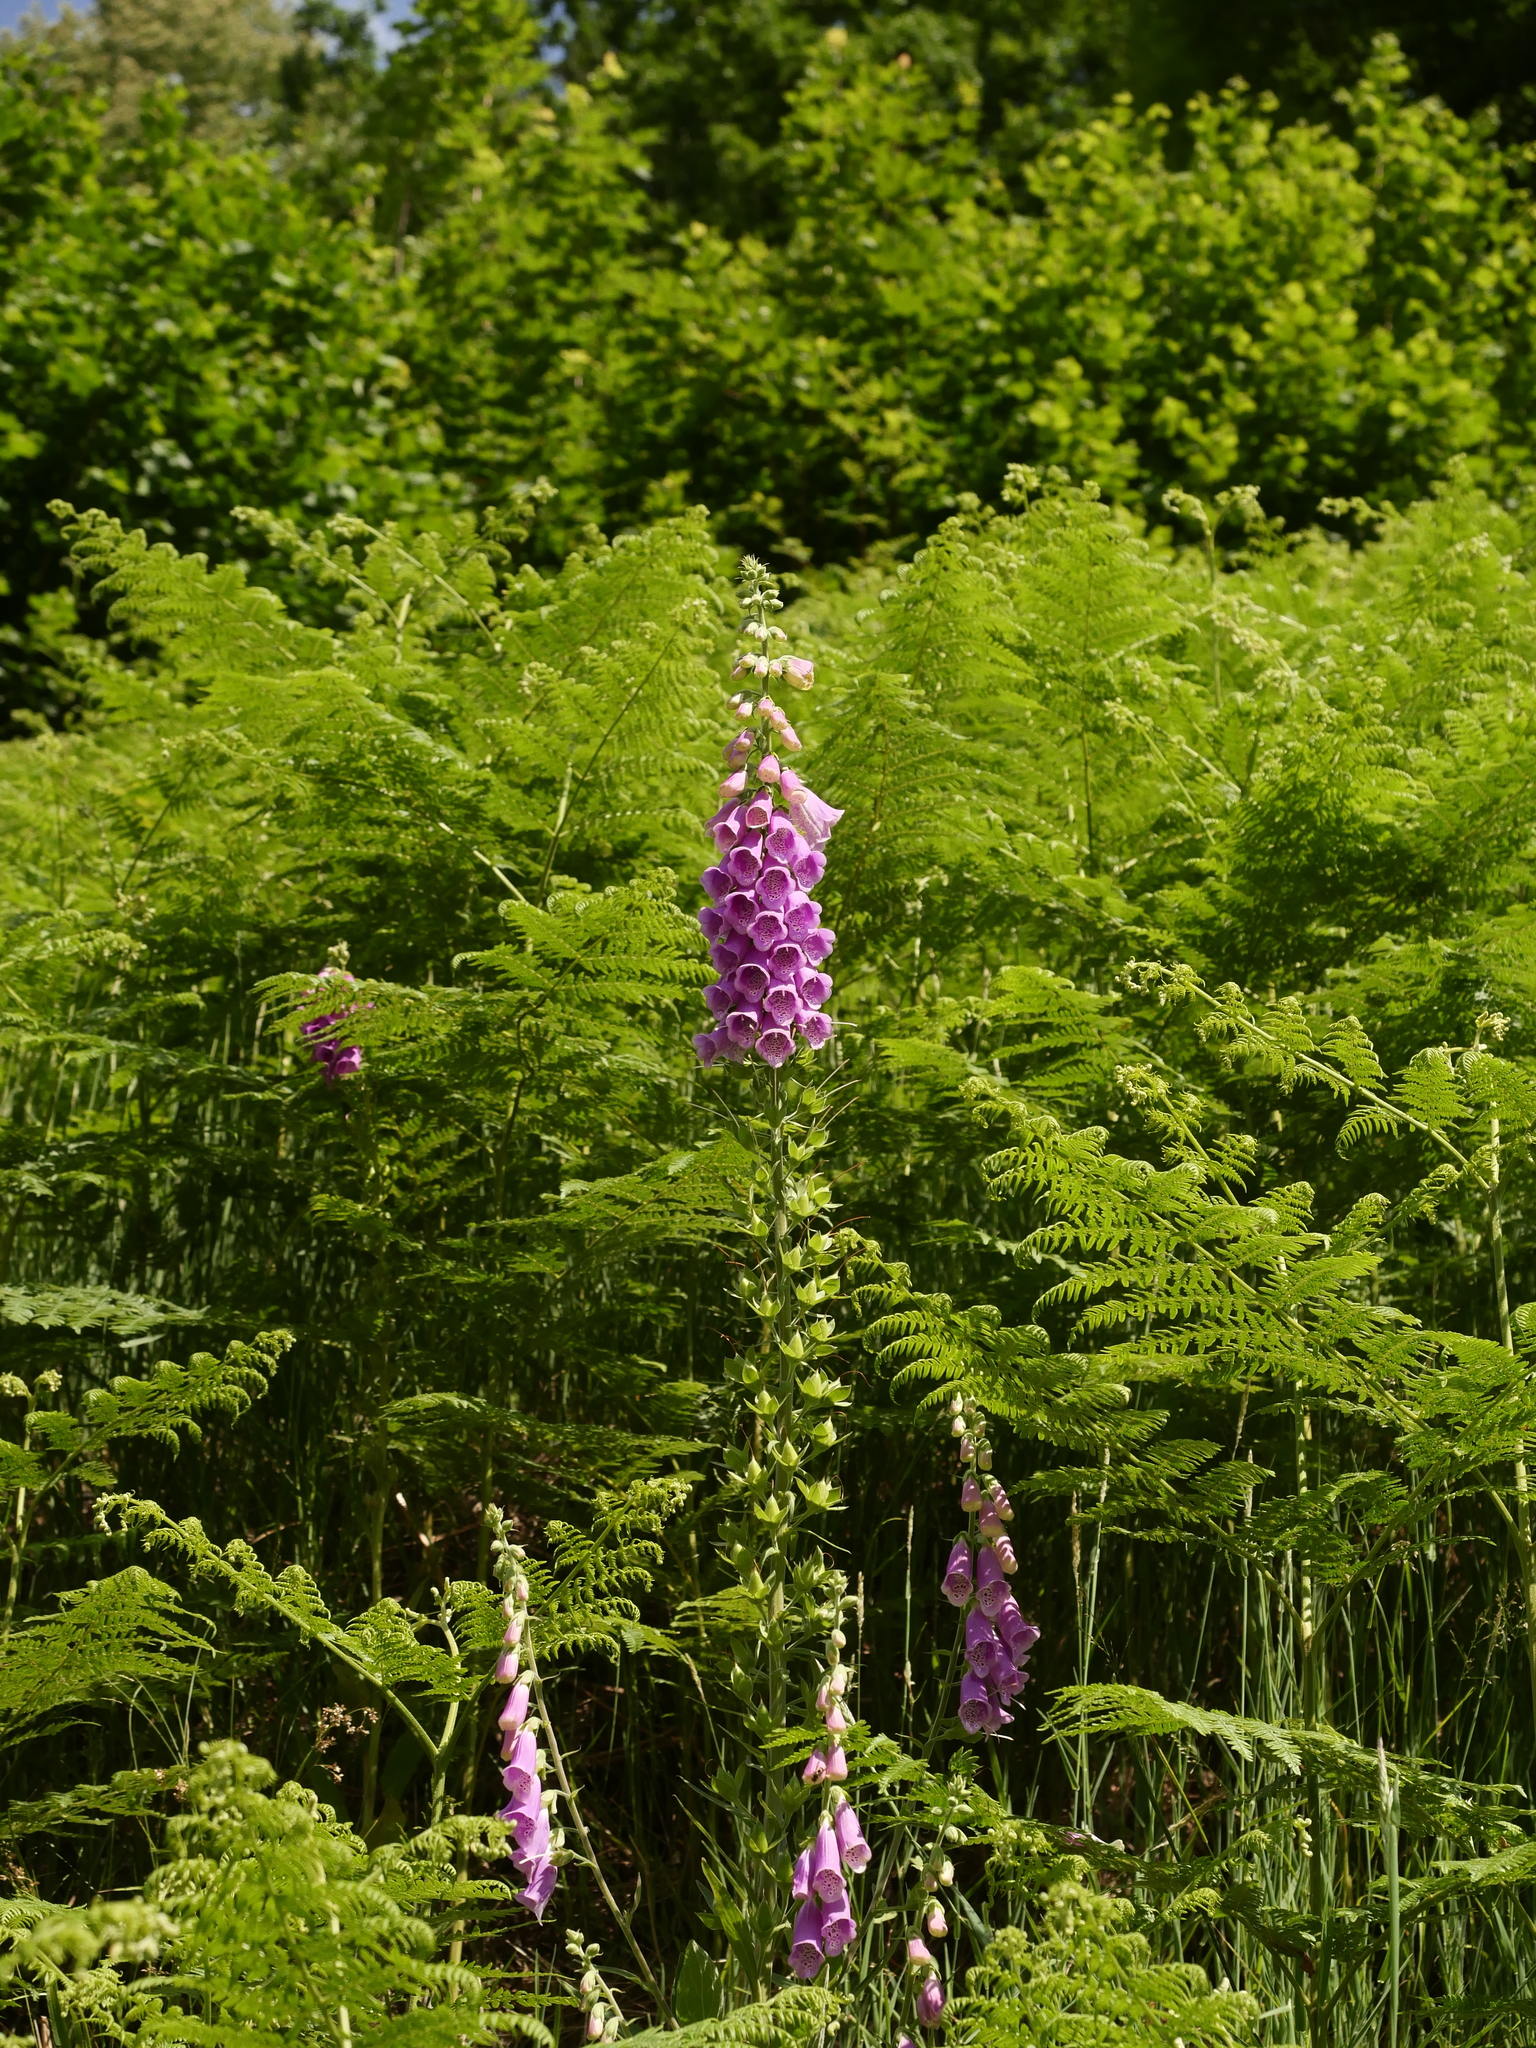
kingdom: Plantae
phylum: Tracheophyta
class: Magnoliopsida
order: Lamiales
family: Plantaginaceae
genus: Digitalis
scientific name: Digitalis purpurea
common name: Foxglove
